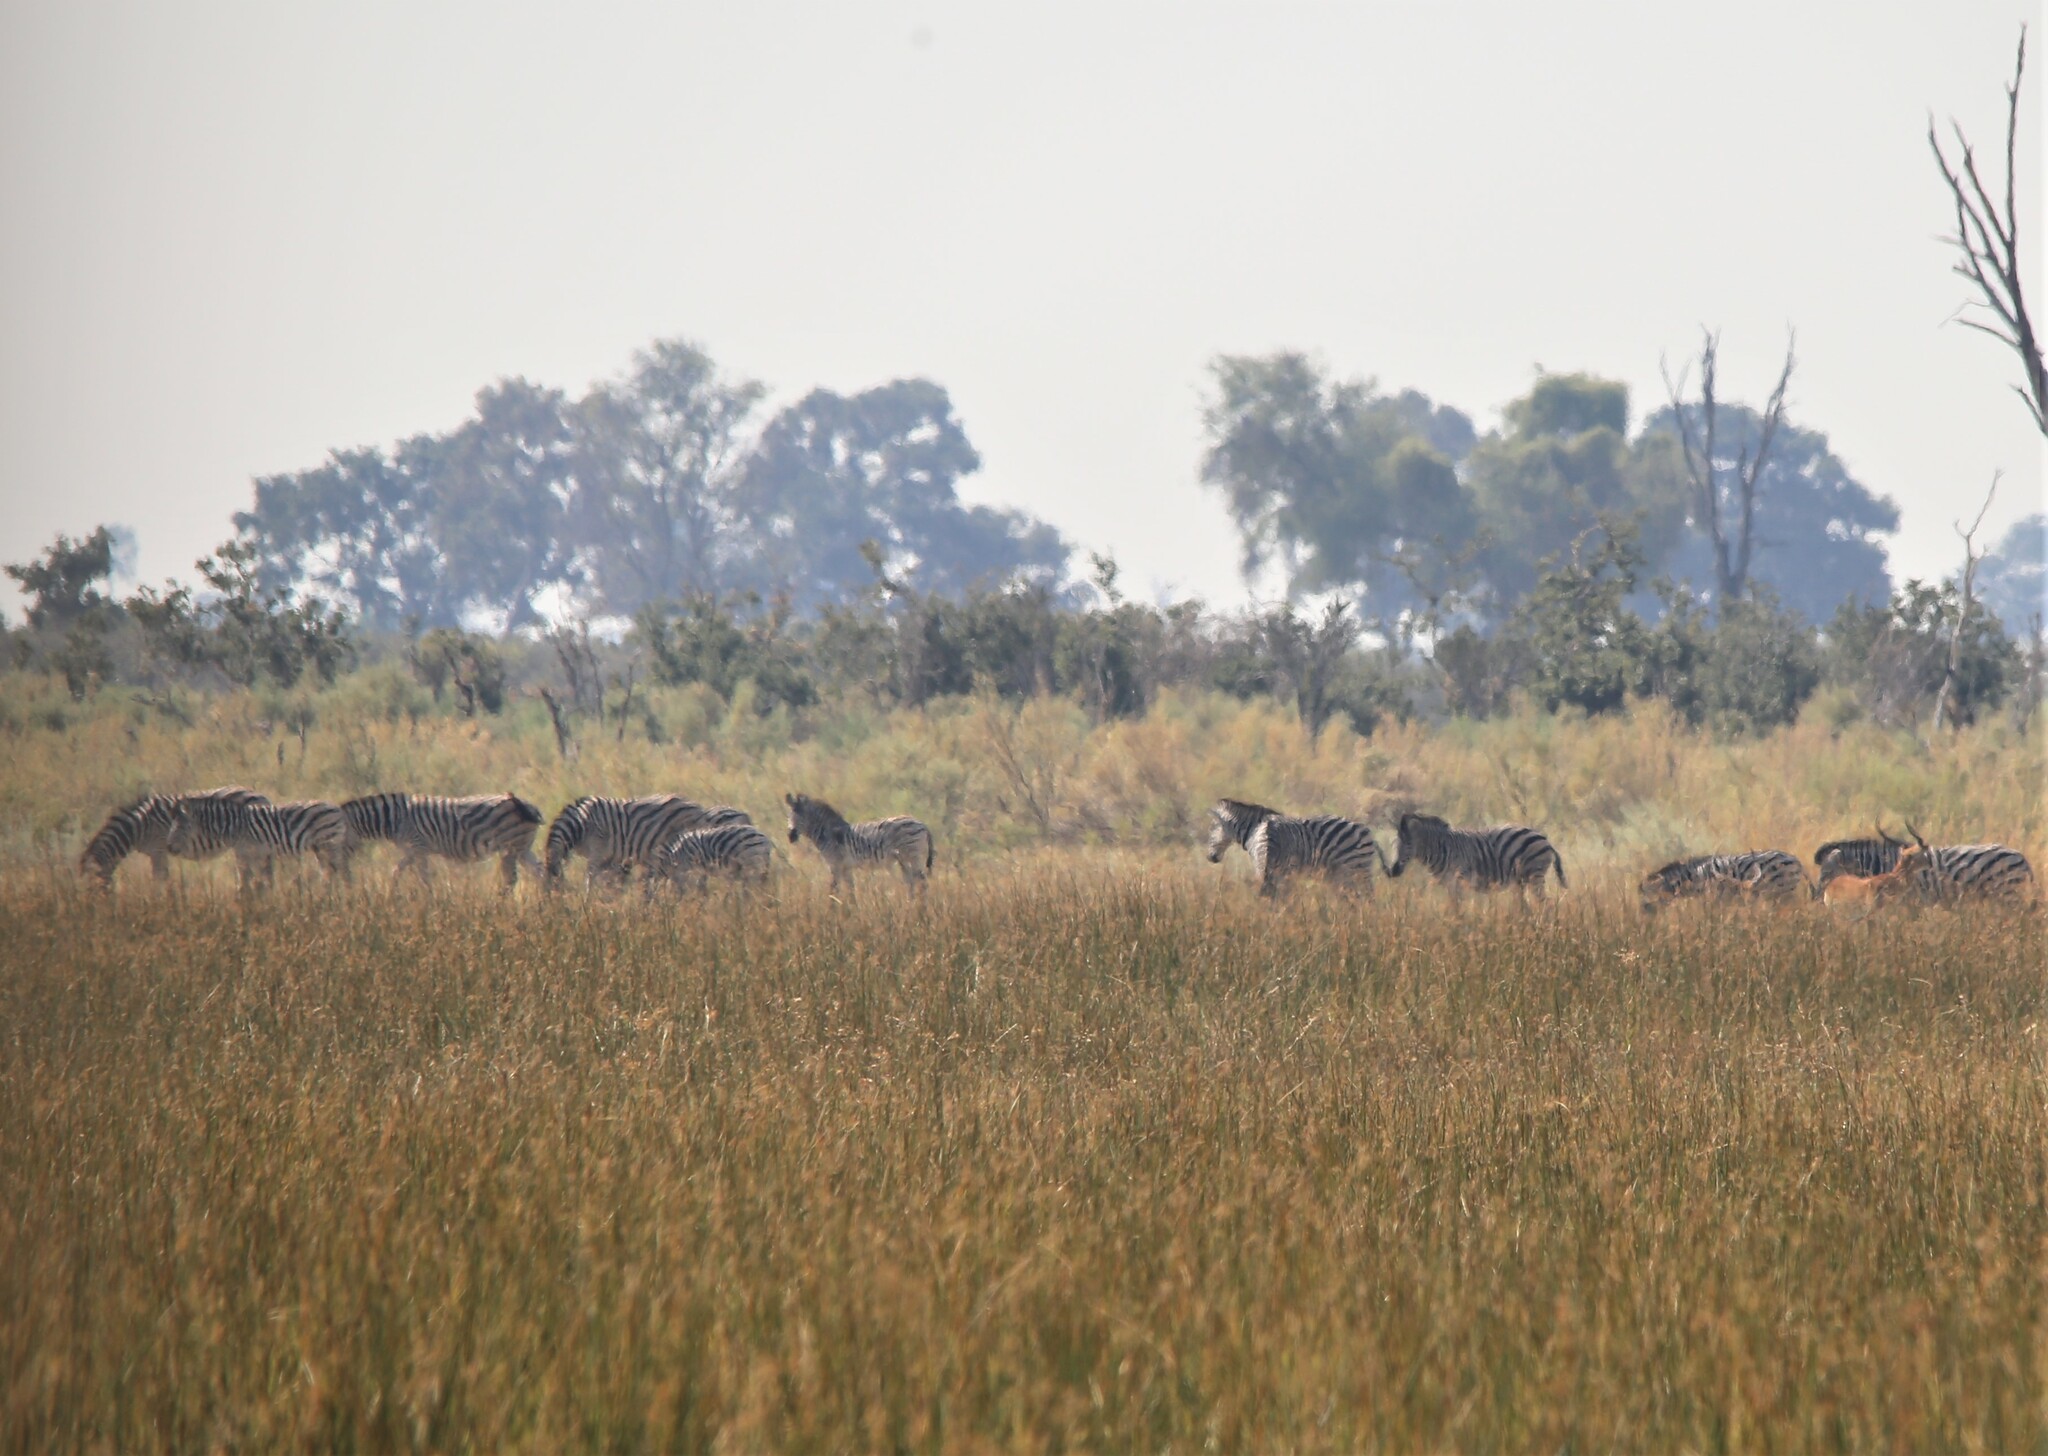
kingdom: Animalia
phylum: Chordata
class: Mammalia
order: Perissodactyla
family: Equidae
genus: Equus
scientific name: Equus quagga
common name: Plains zebra
